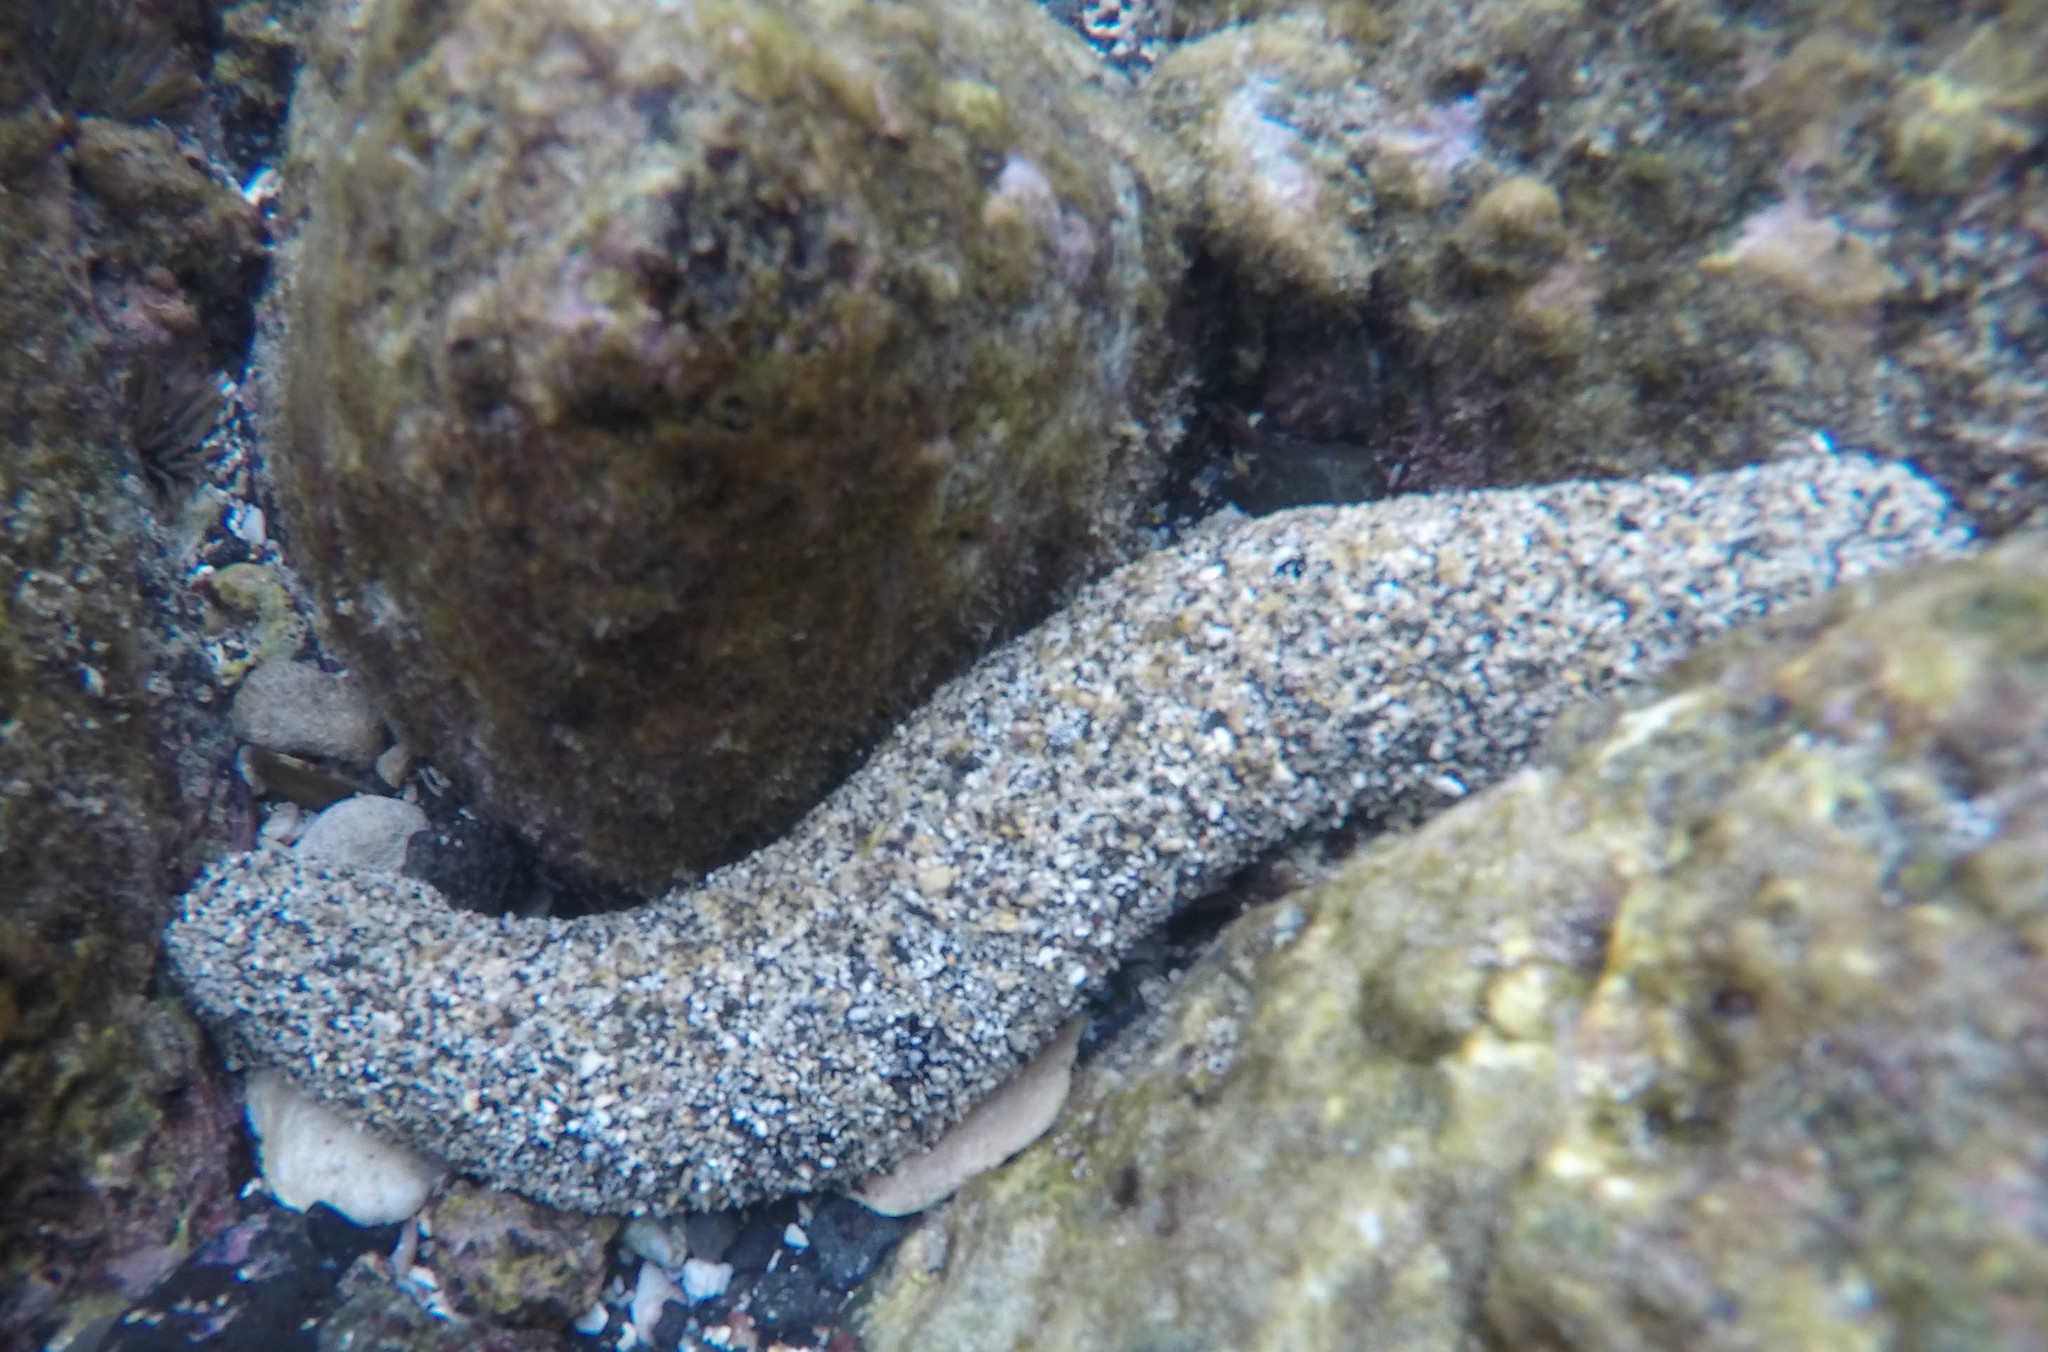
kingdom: Animalia
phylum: Echinodermata
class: Holothuroidea
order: Holothuriida
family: Holothuriidae
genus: Holothuria
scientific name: Holothuria atra
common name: Lollyfish
